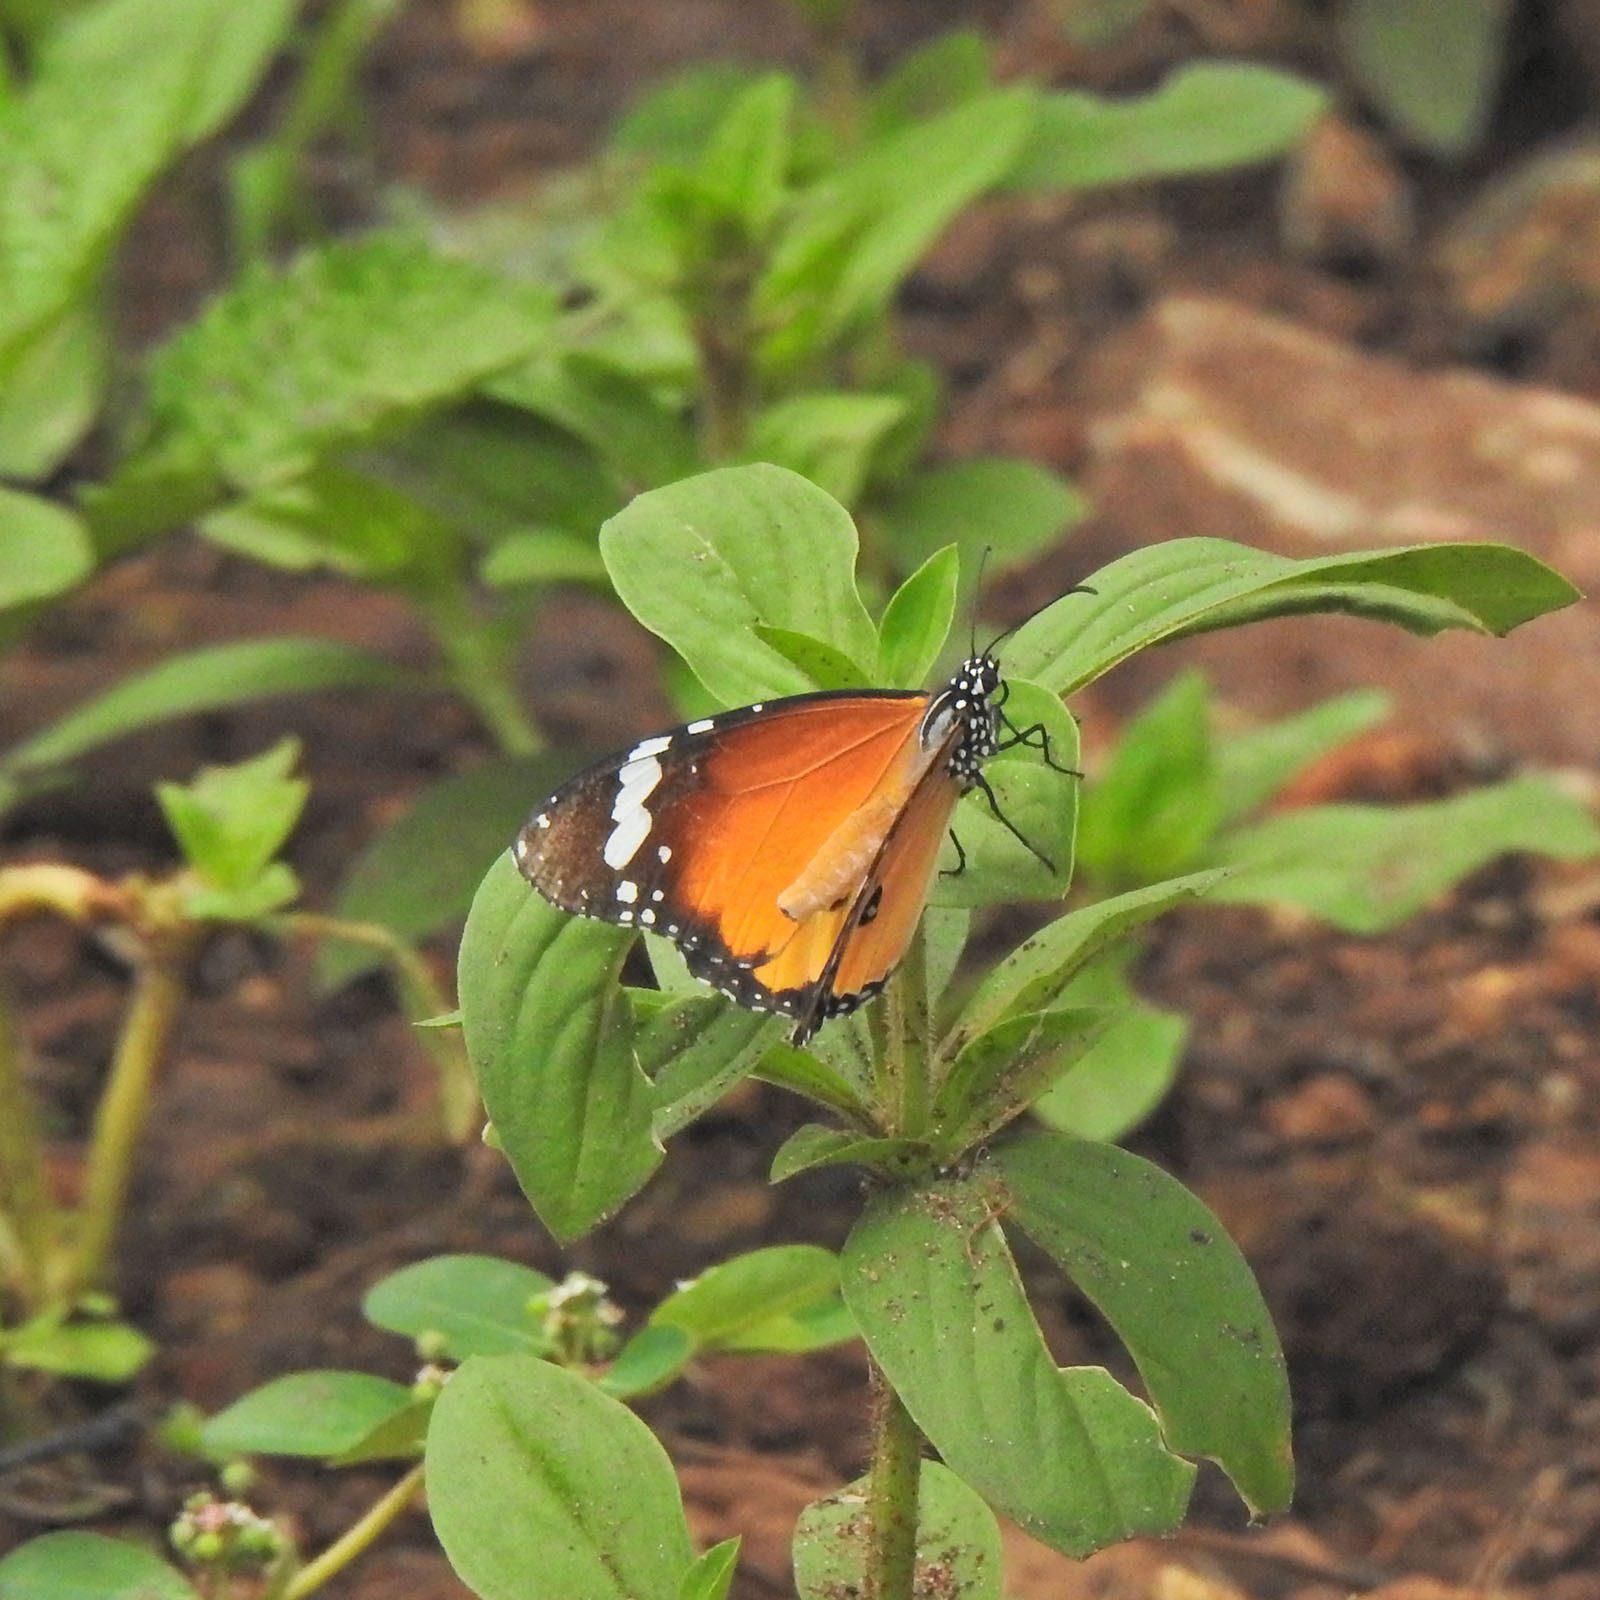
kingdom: Animalia
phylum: Arthropoda
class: Insecta
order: Lepidoptera
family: Nymphalidae
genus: Danaus
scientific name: Danaus chrysippus
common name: Plain tiger
